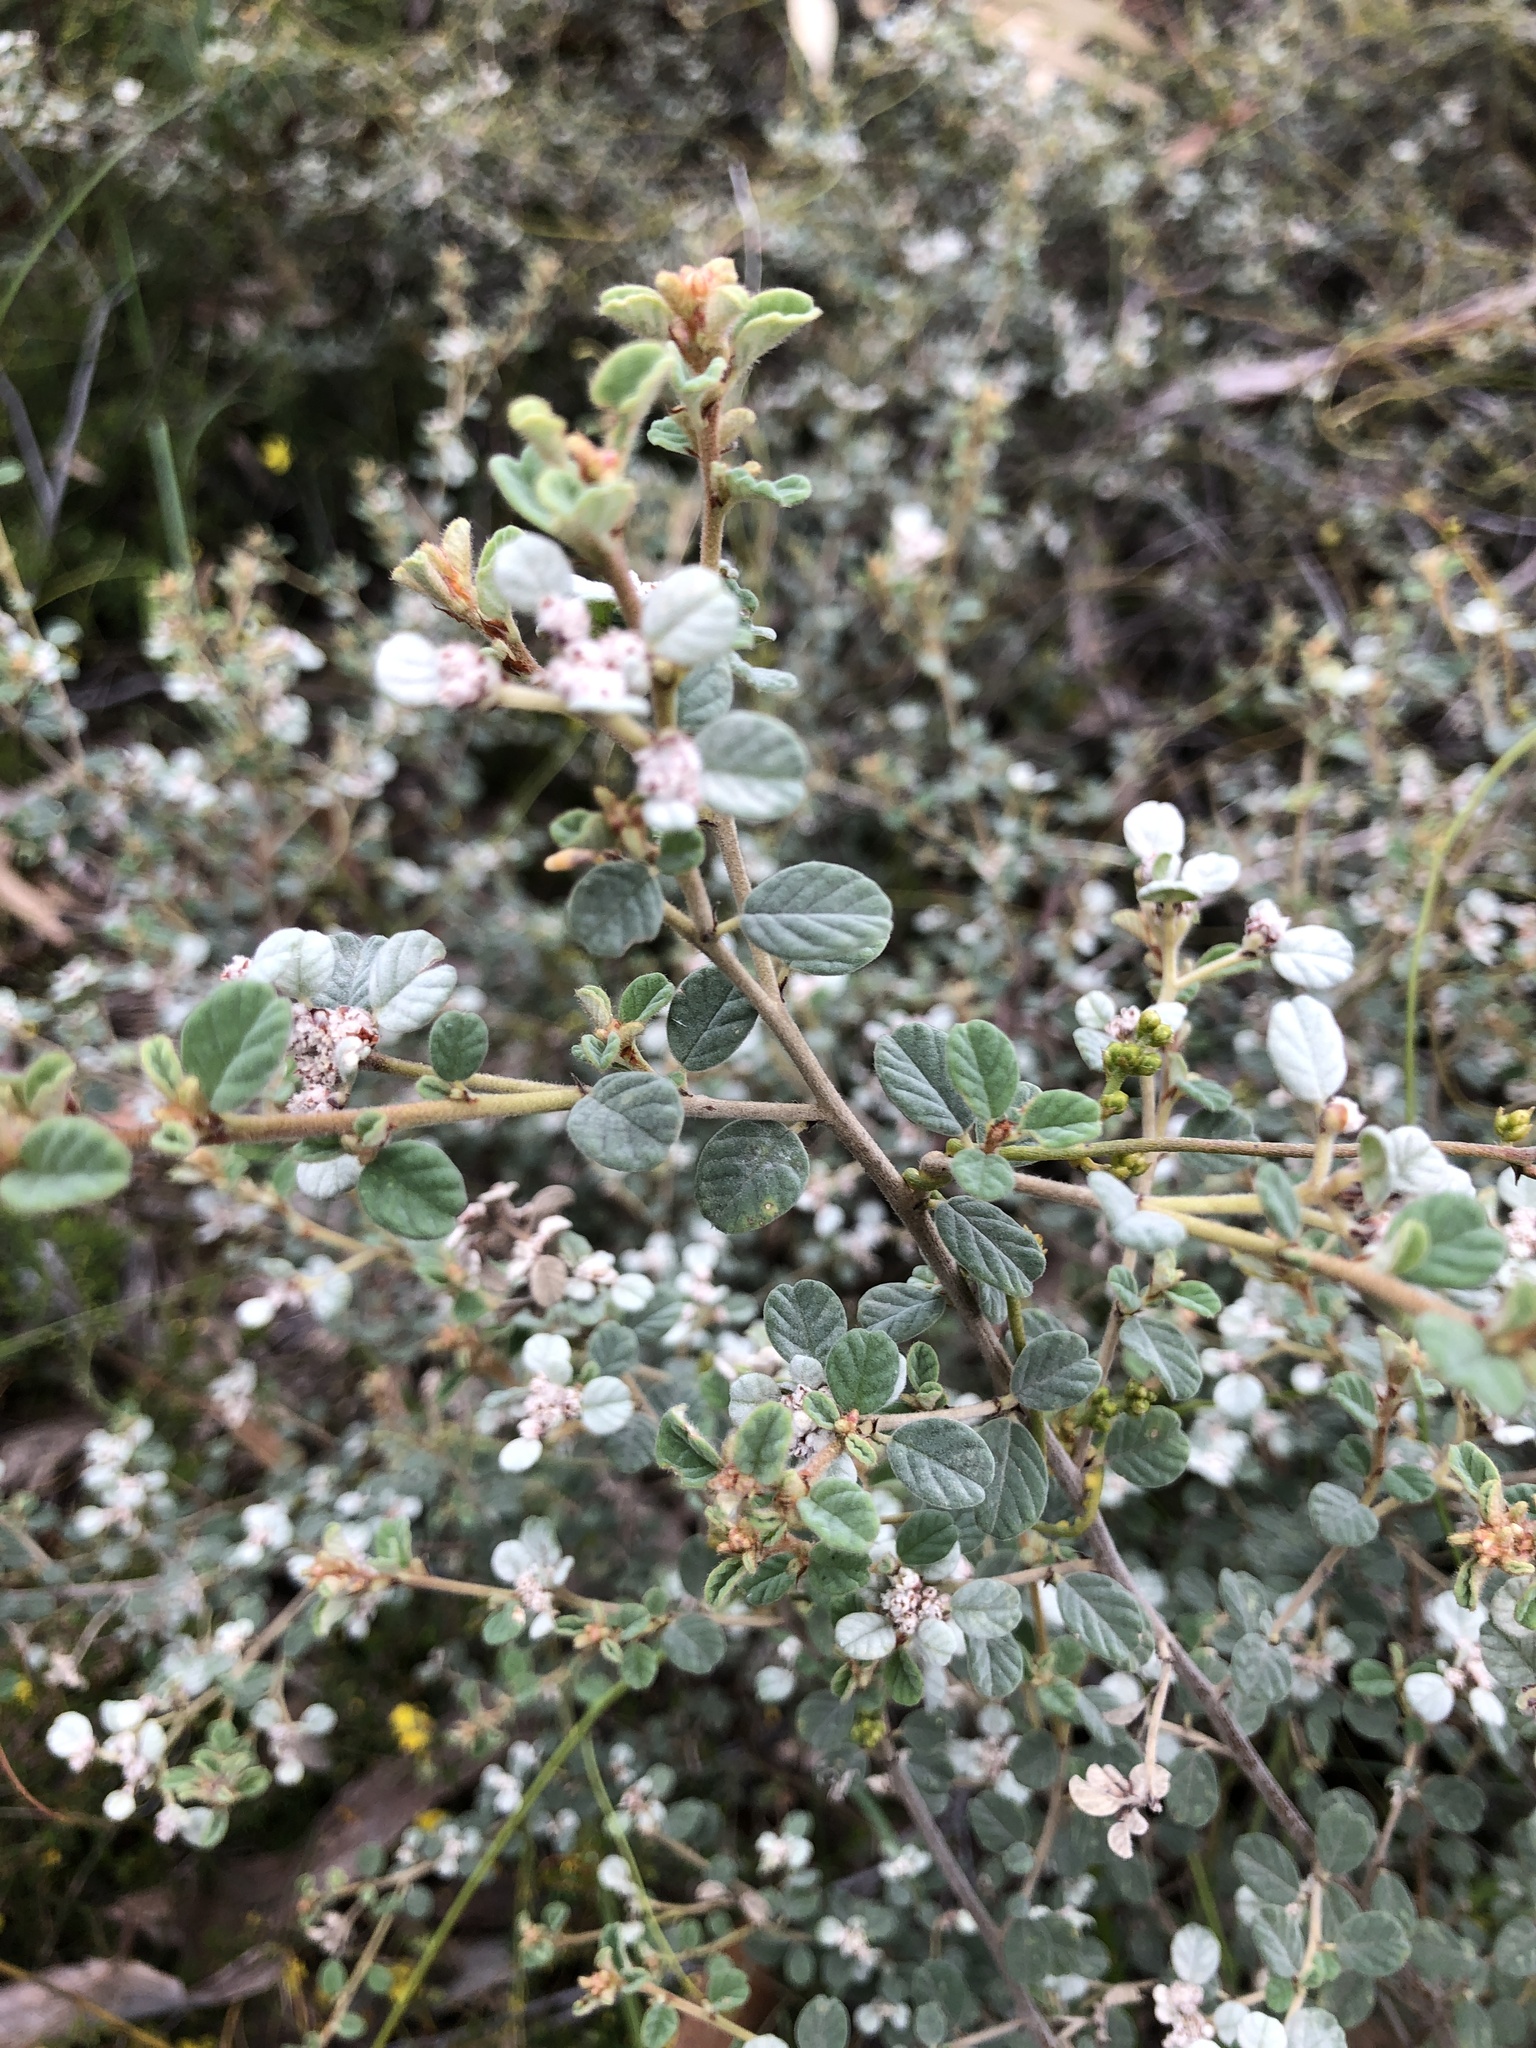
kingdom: Plantae
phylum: Tracheophyta
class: Magnoliopsida
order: Rosales
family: Rhamnaceae
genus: Spyridium
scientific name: Spyridium parvifolium
